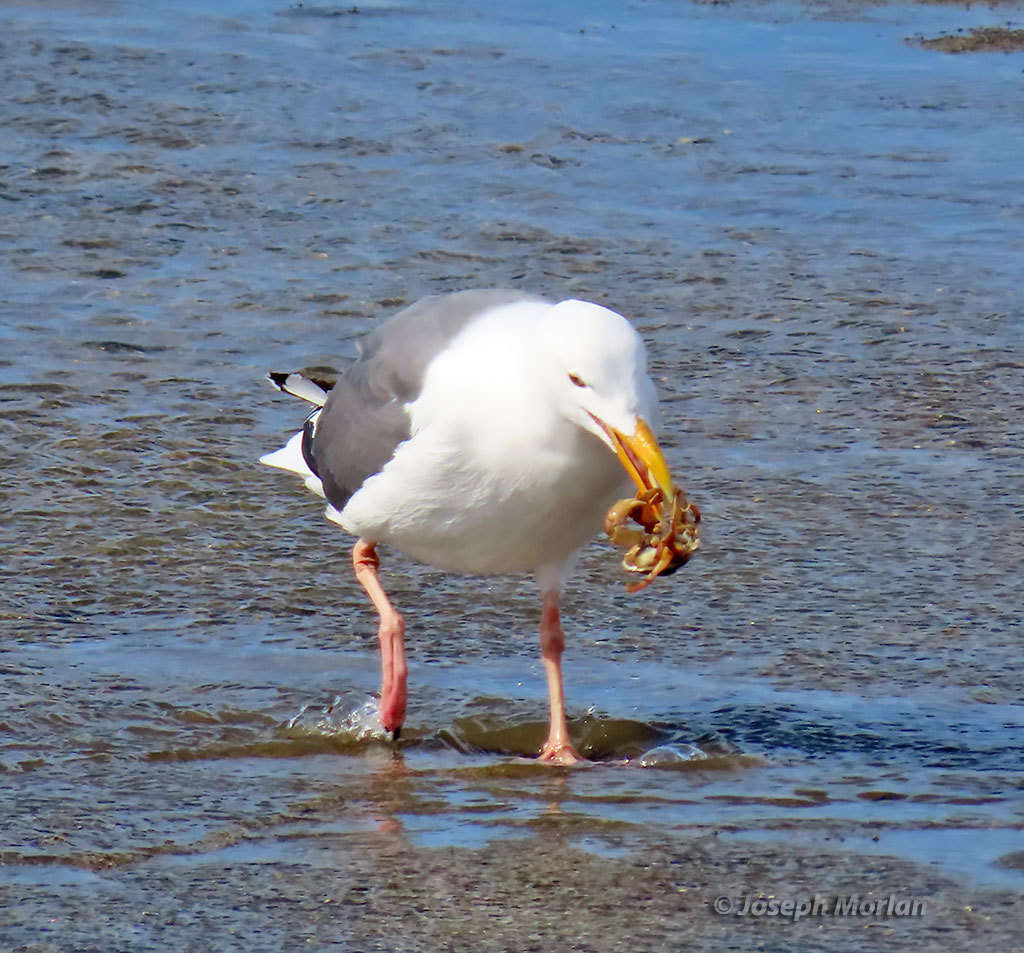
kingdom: Animalia
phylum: Chordata
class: Aves
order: Charadriiformes
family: Laridae
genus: Larus
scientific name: Larus occidentalis
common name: Western gull
